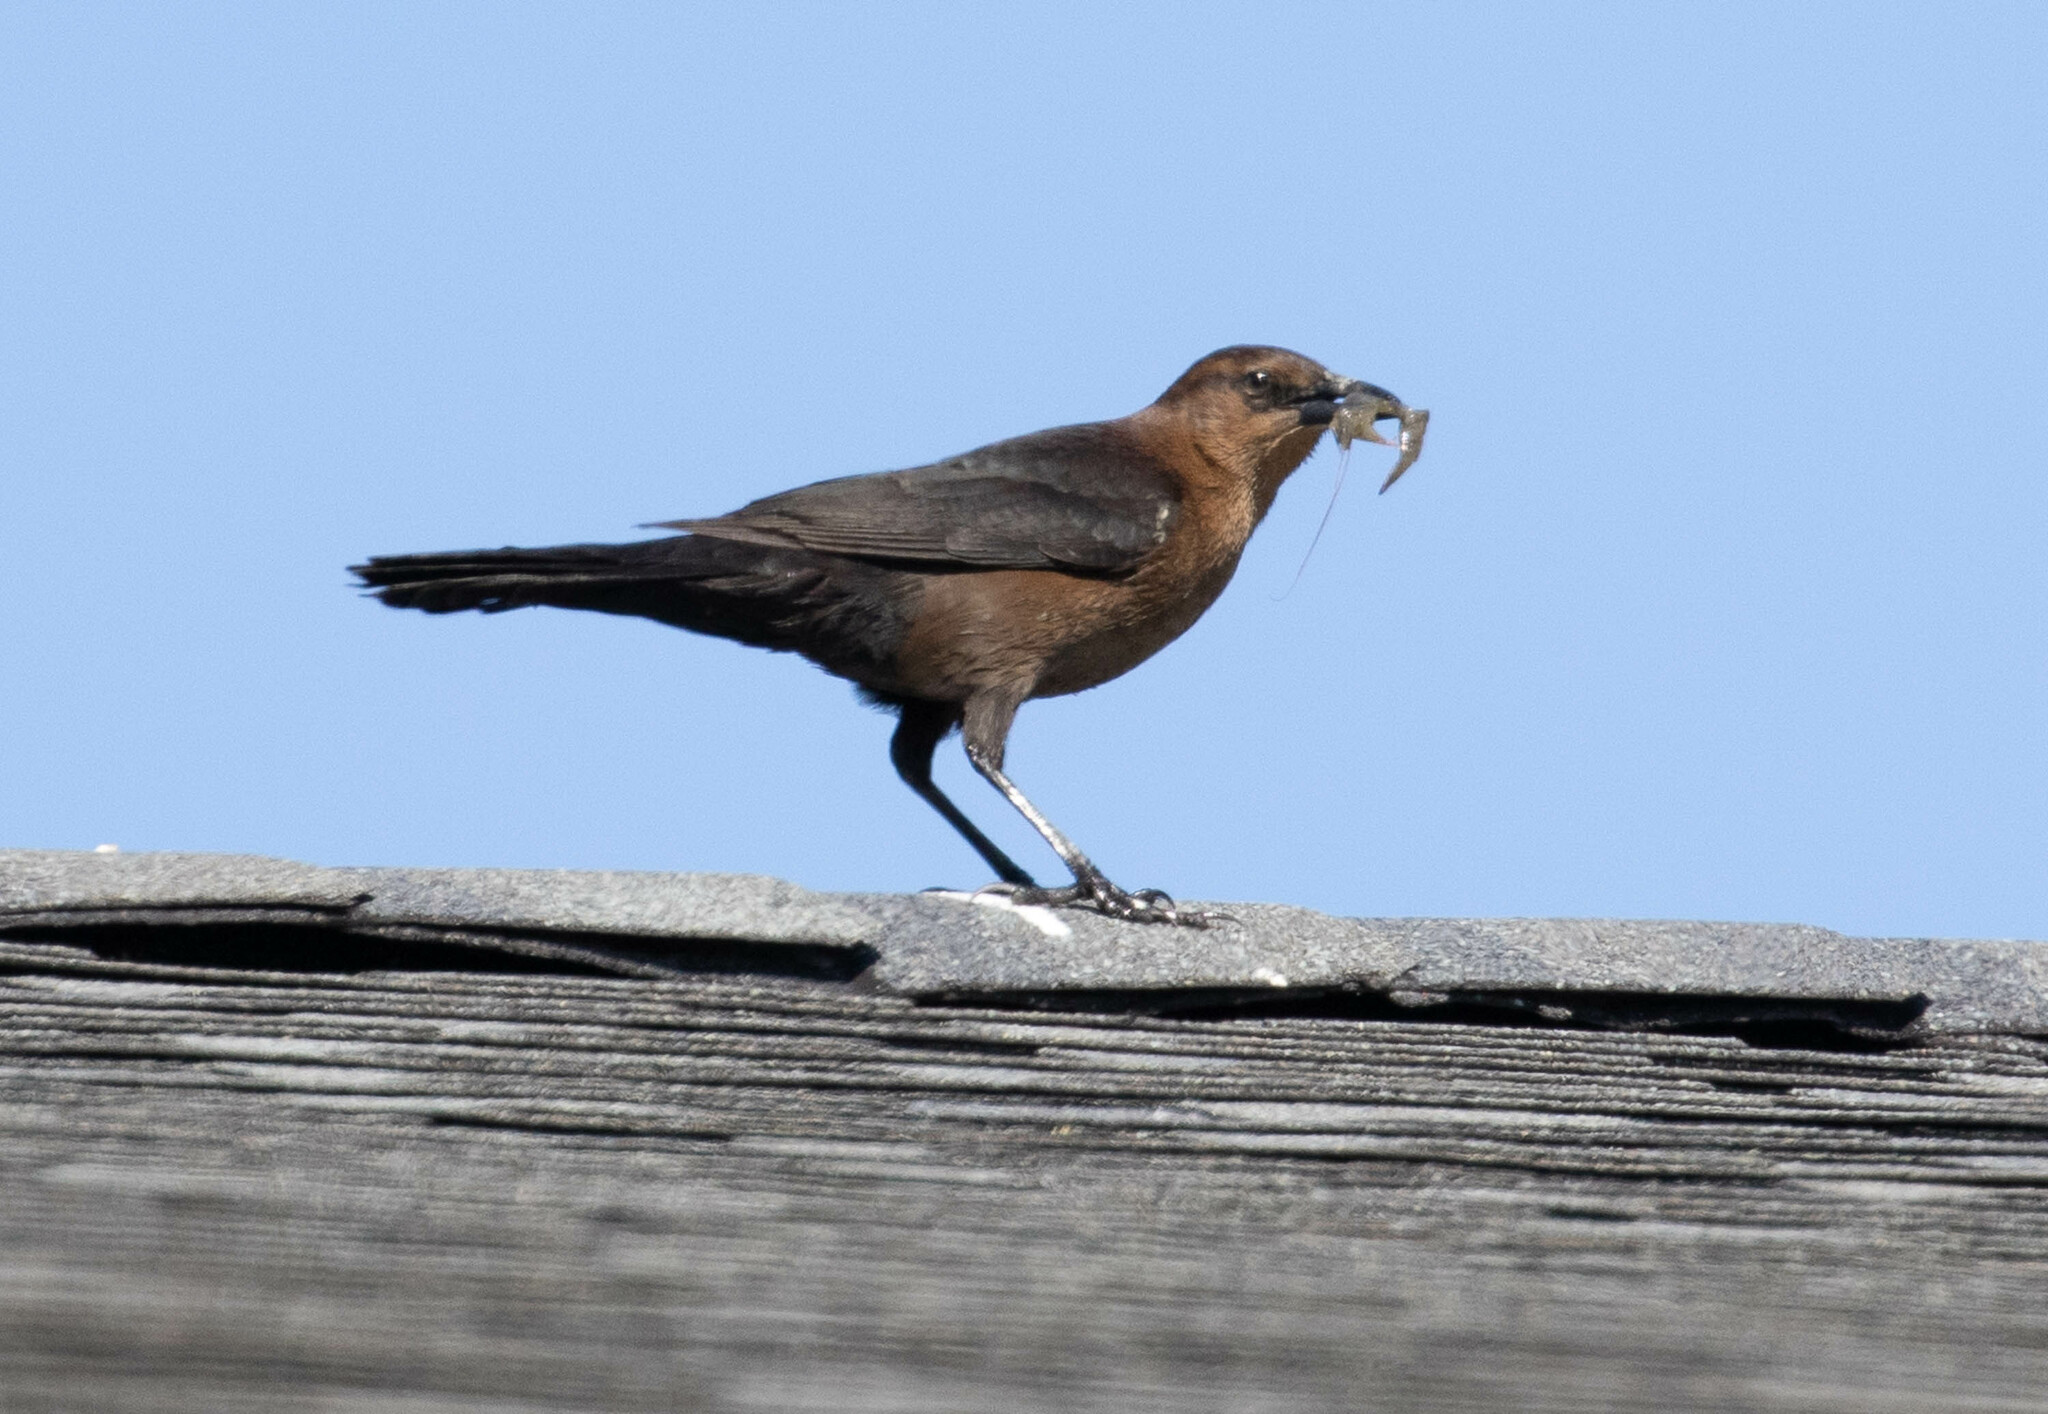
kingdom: Animalia
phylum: Chordata
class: Aves
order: Passeriformes
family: Icteridae
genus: Quiscalus
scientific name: Quiscalus major
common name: Boat-tailed grackle
